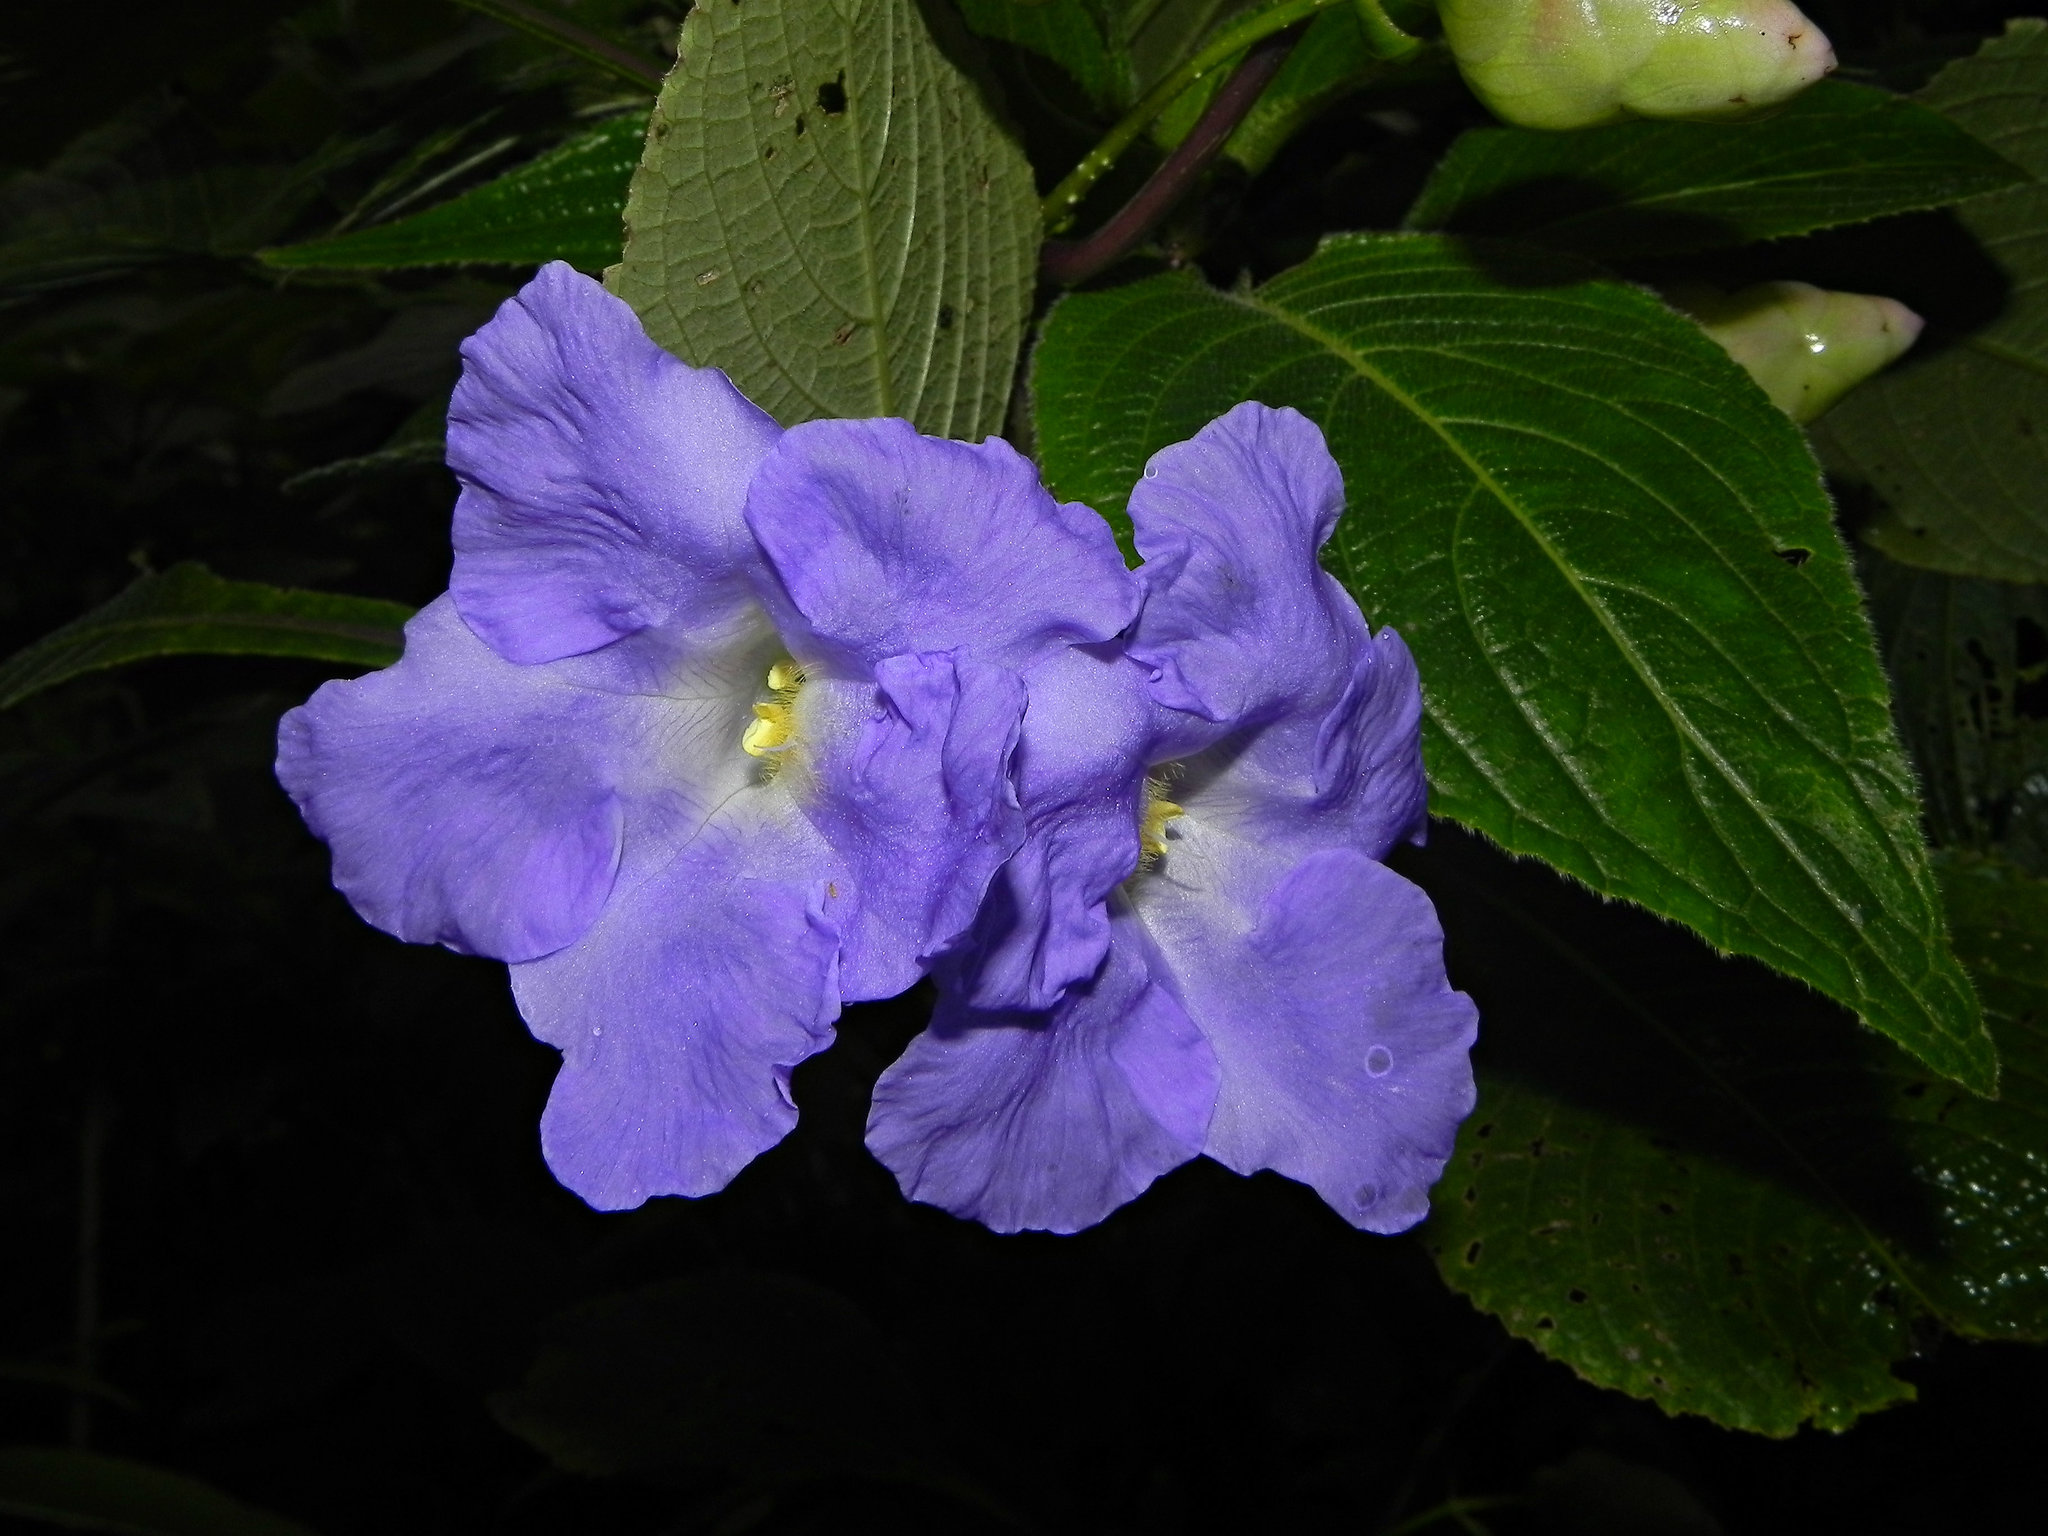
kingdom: Plantae
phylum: Tracheophyta
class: Magnoliopsida
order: Lamiales
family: Acanthaceae
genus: Strobilanthes
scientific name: Strobilanthes callosa
